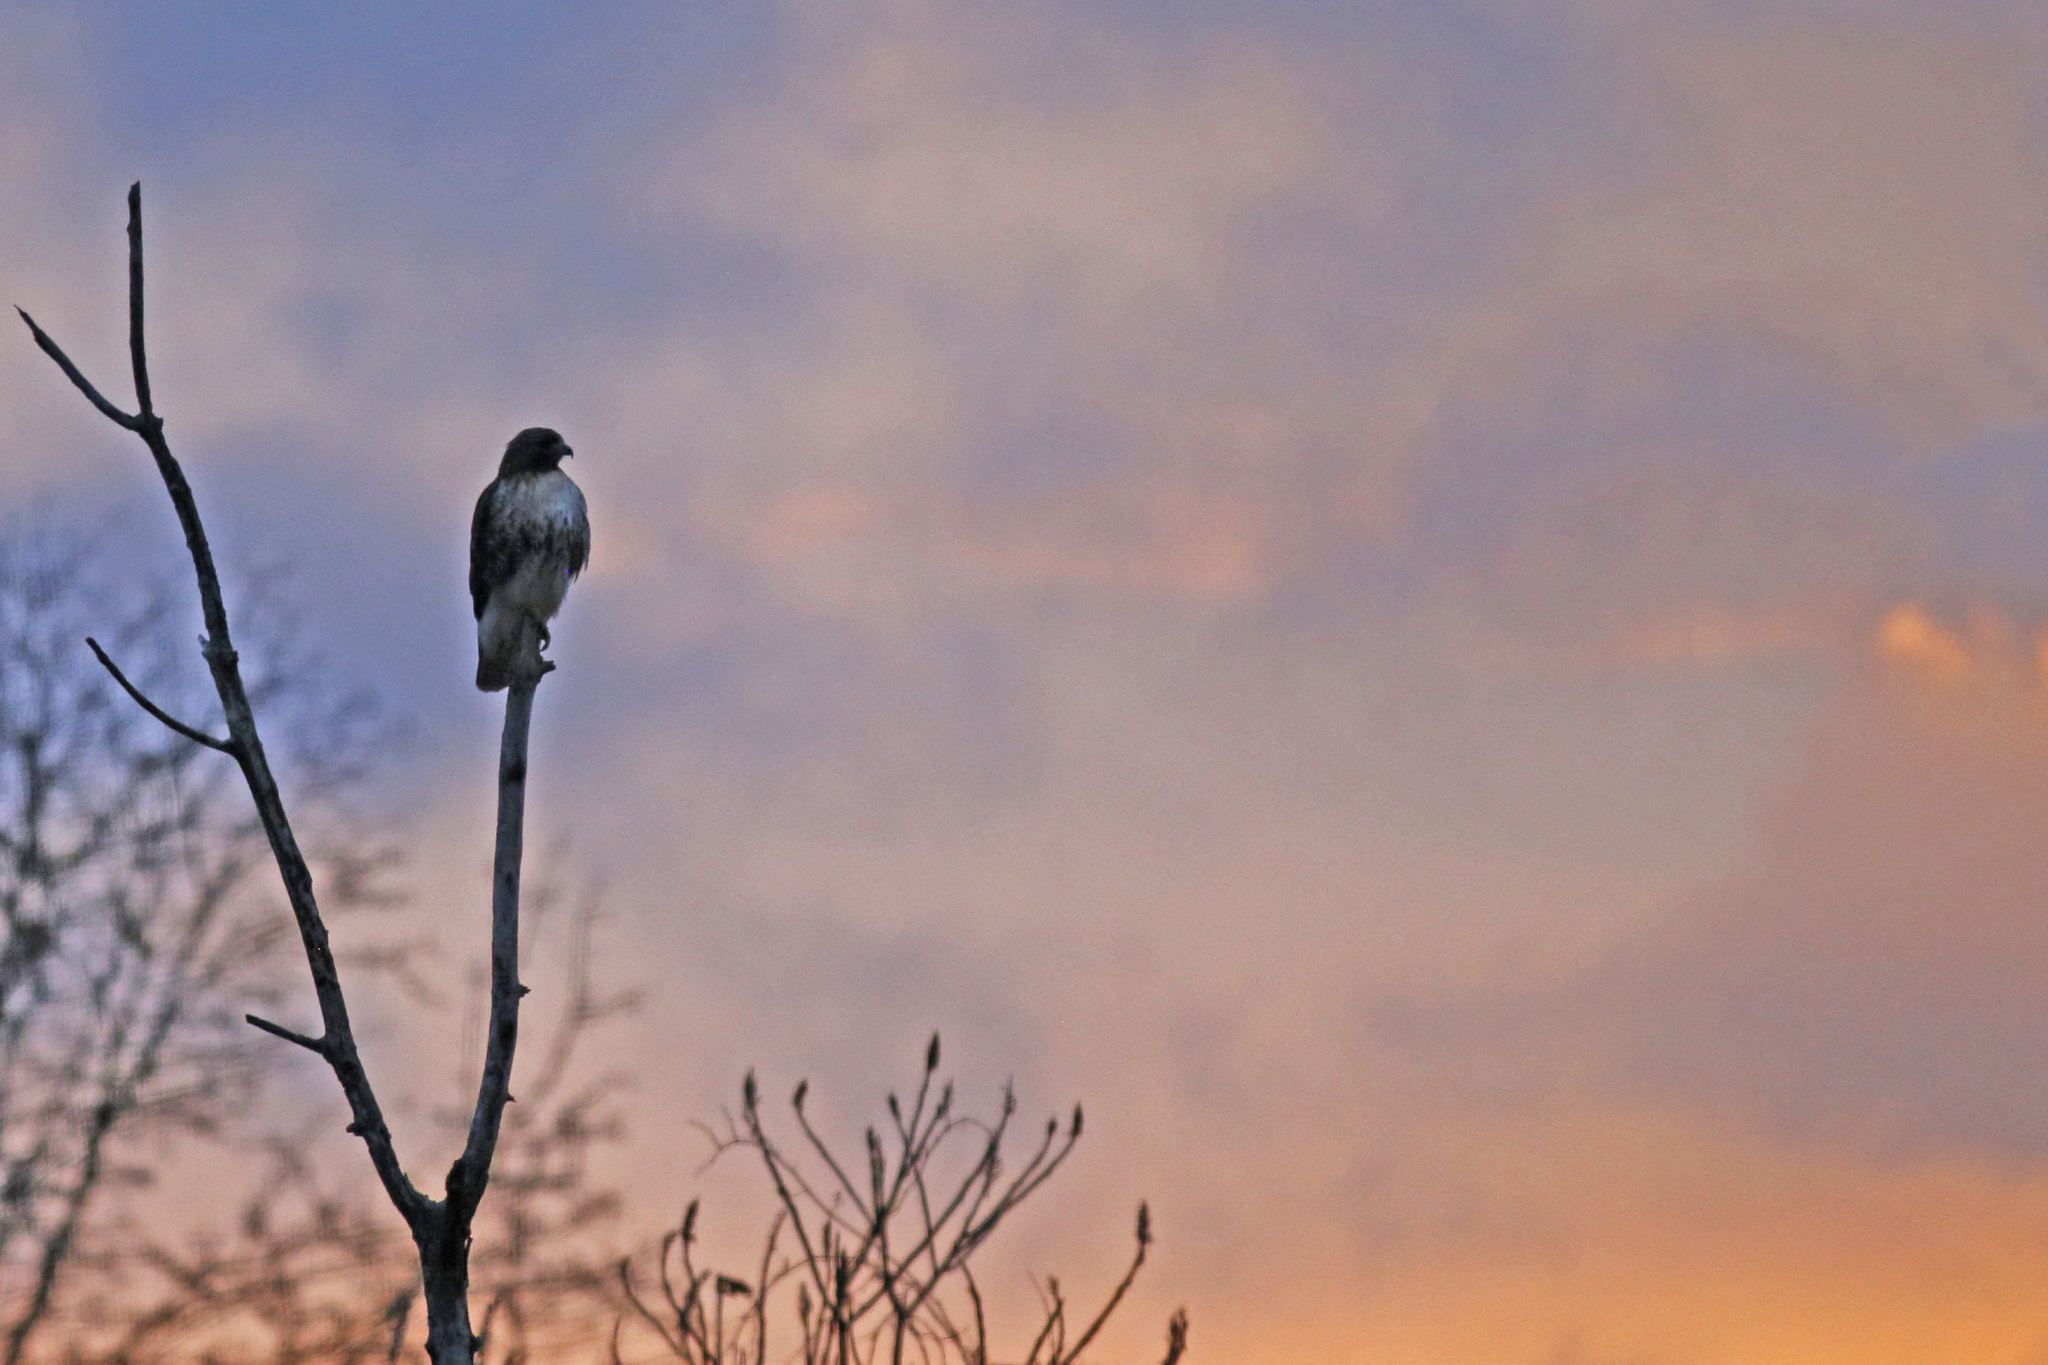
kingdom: Animalia
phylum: Chordata
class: Aves
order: Accipitriformes
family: Accipitridae
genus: Buteo
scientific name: Buteo jamaicensis
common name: Red-tailed hawk
